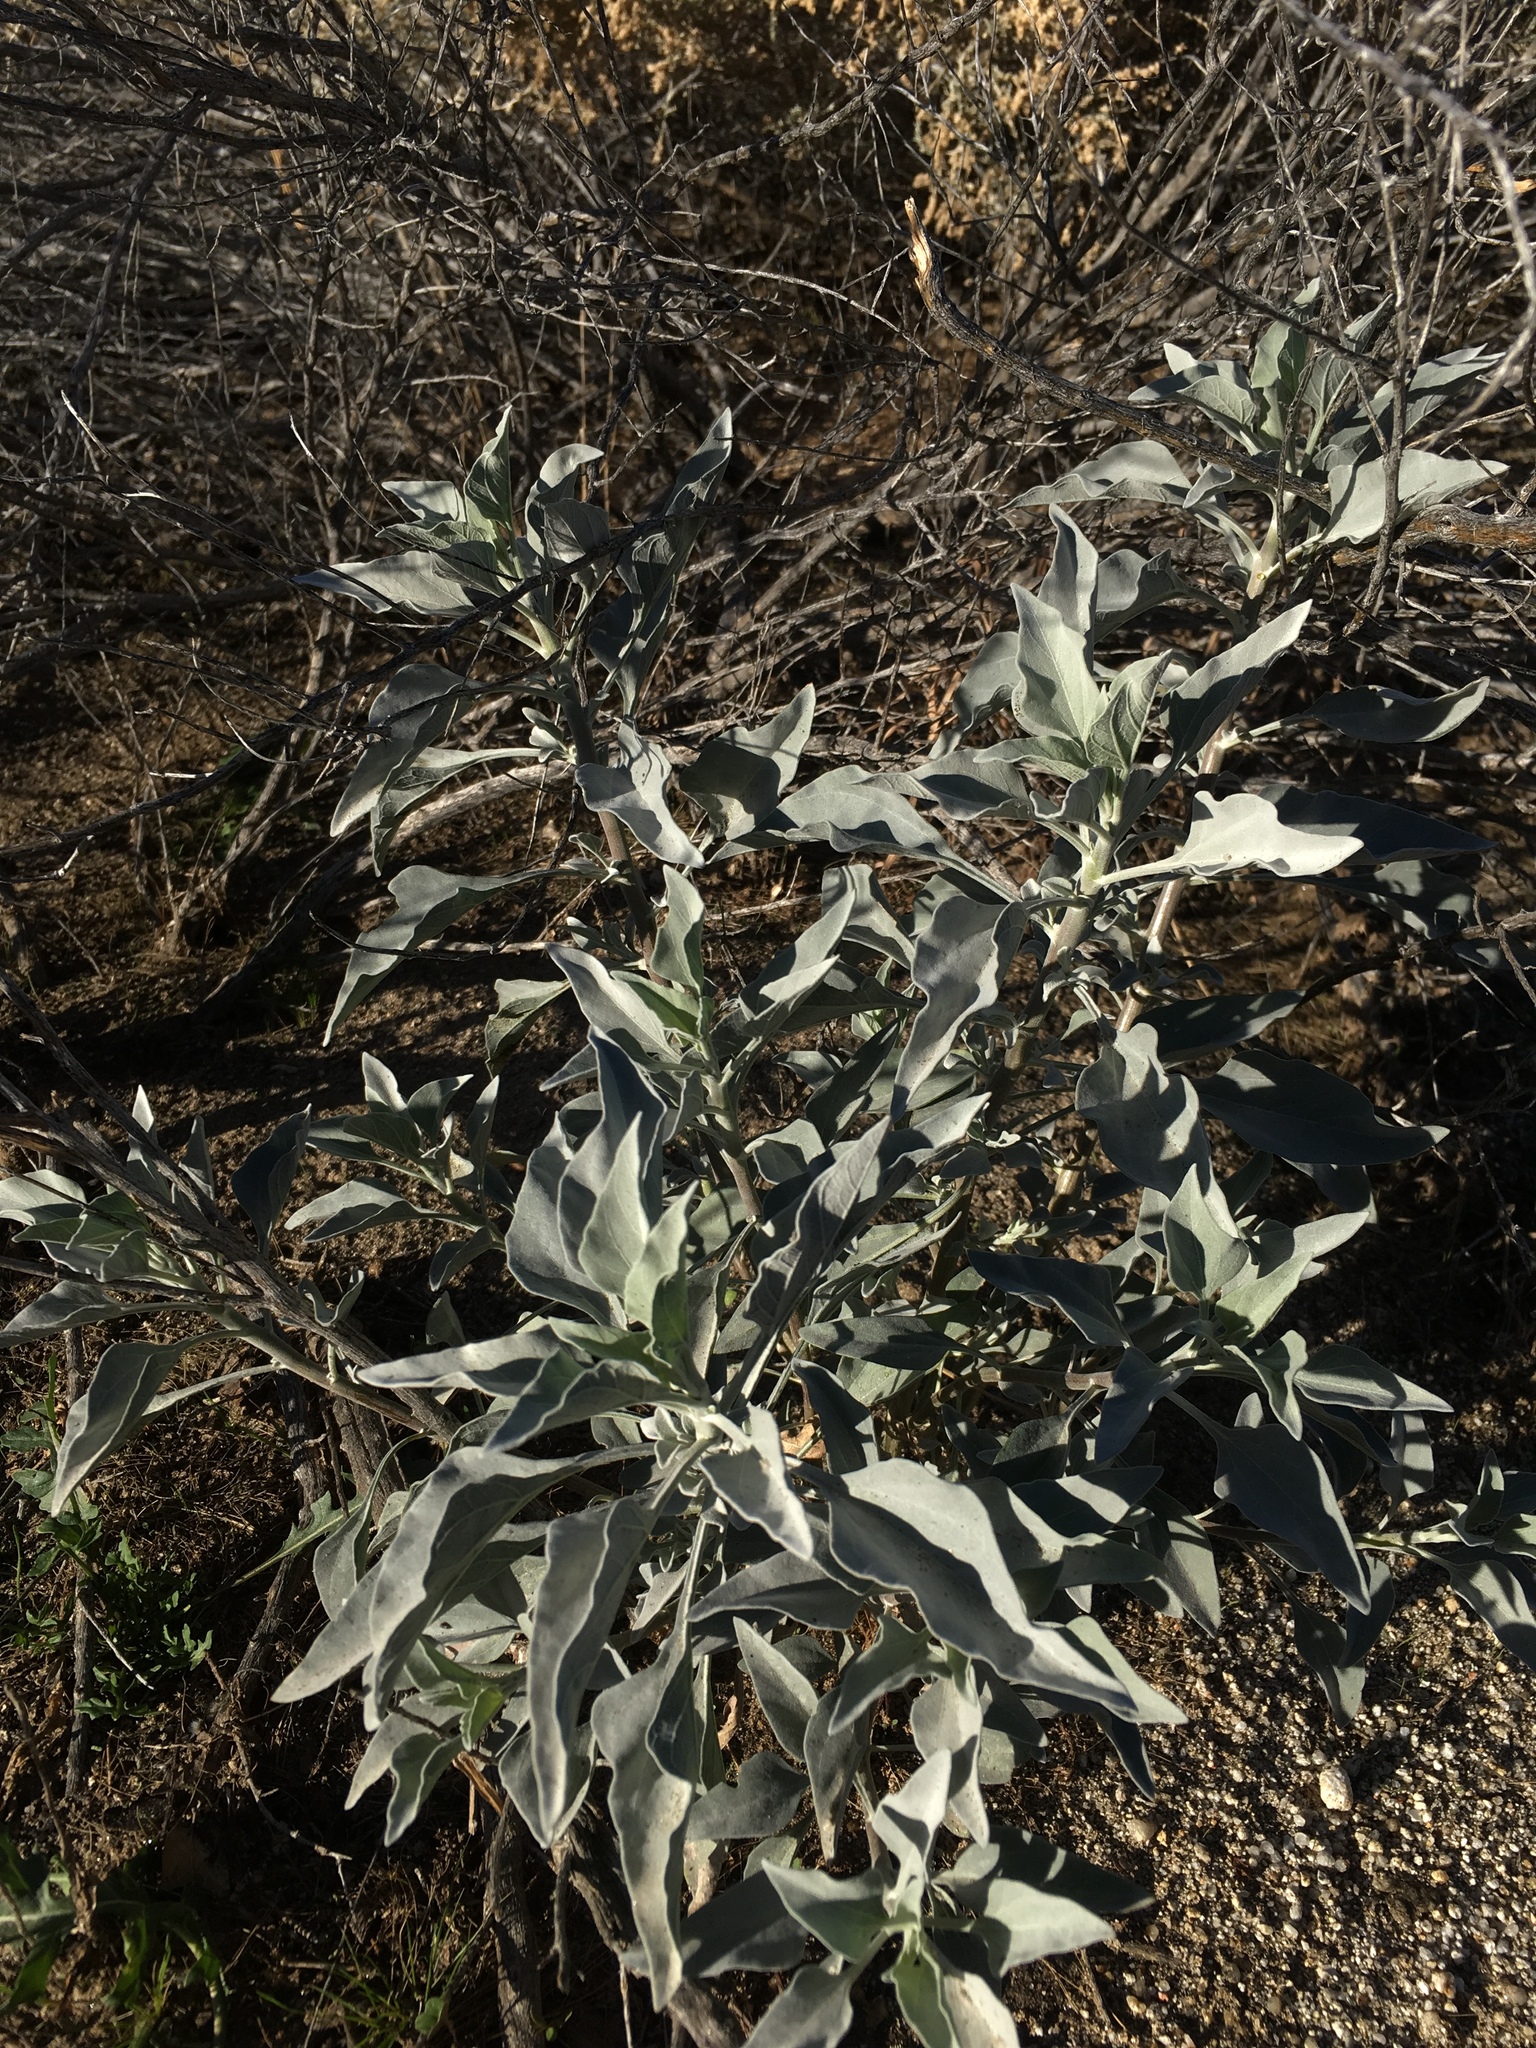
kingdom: Plantae
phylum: Tracheophyta
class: Magnoliopsida
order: Asterales
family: Asteraceae
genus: Encelia
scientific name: Encelia farinosa
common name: Brittlebush
